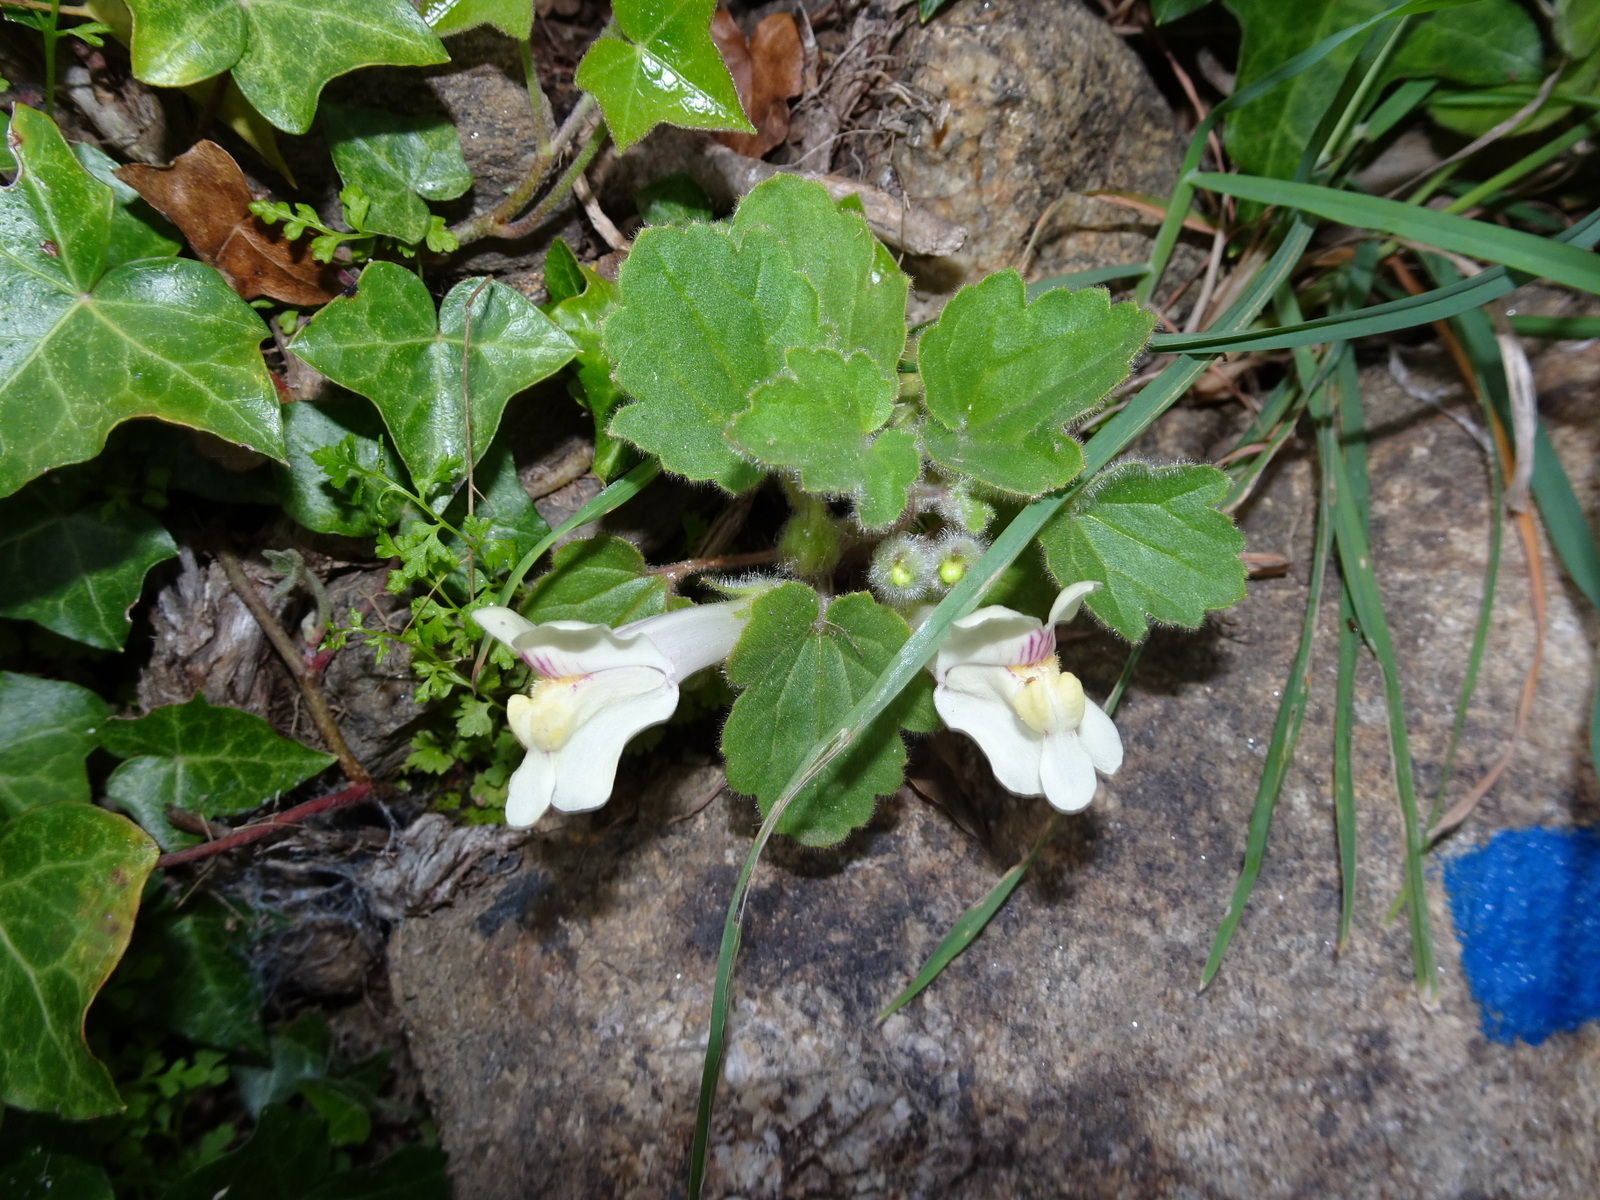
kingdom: Plantae
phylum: Tracheophyta
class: Magnoliopsida
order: Lamiales
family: Plantaginaceae
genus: Asarina
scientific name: Asarina procumbens
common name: Trailing snapdragon
